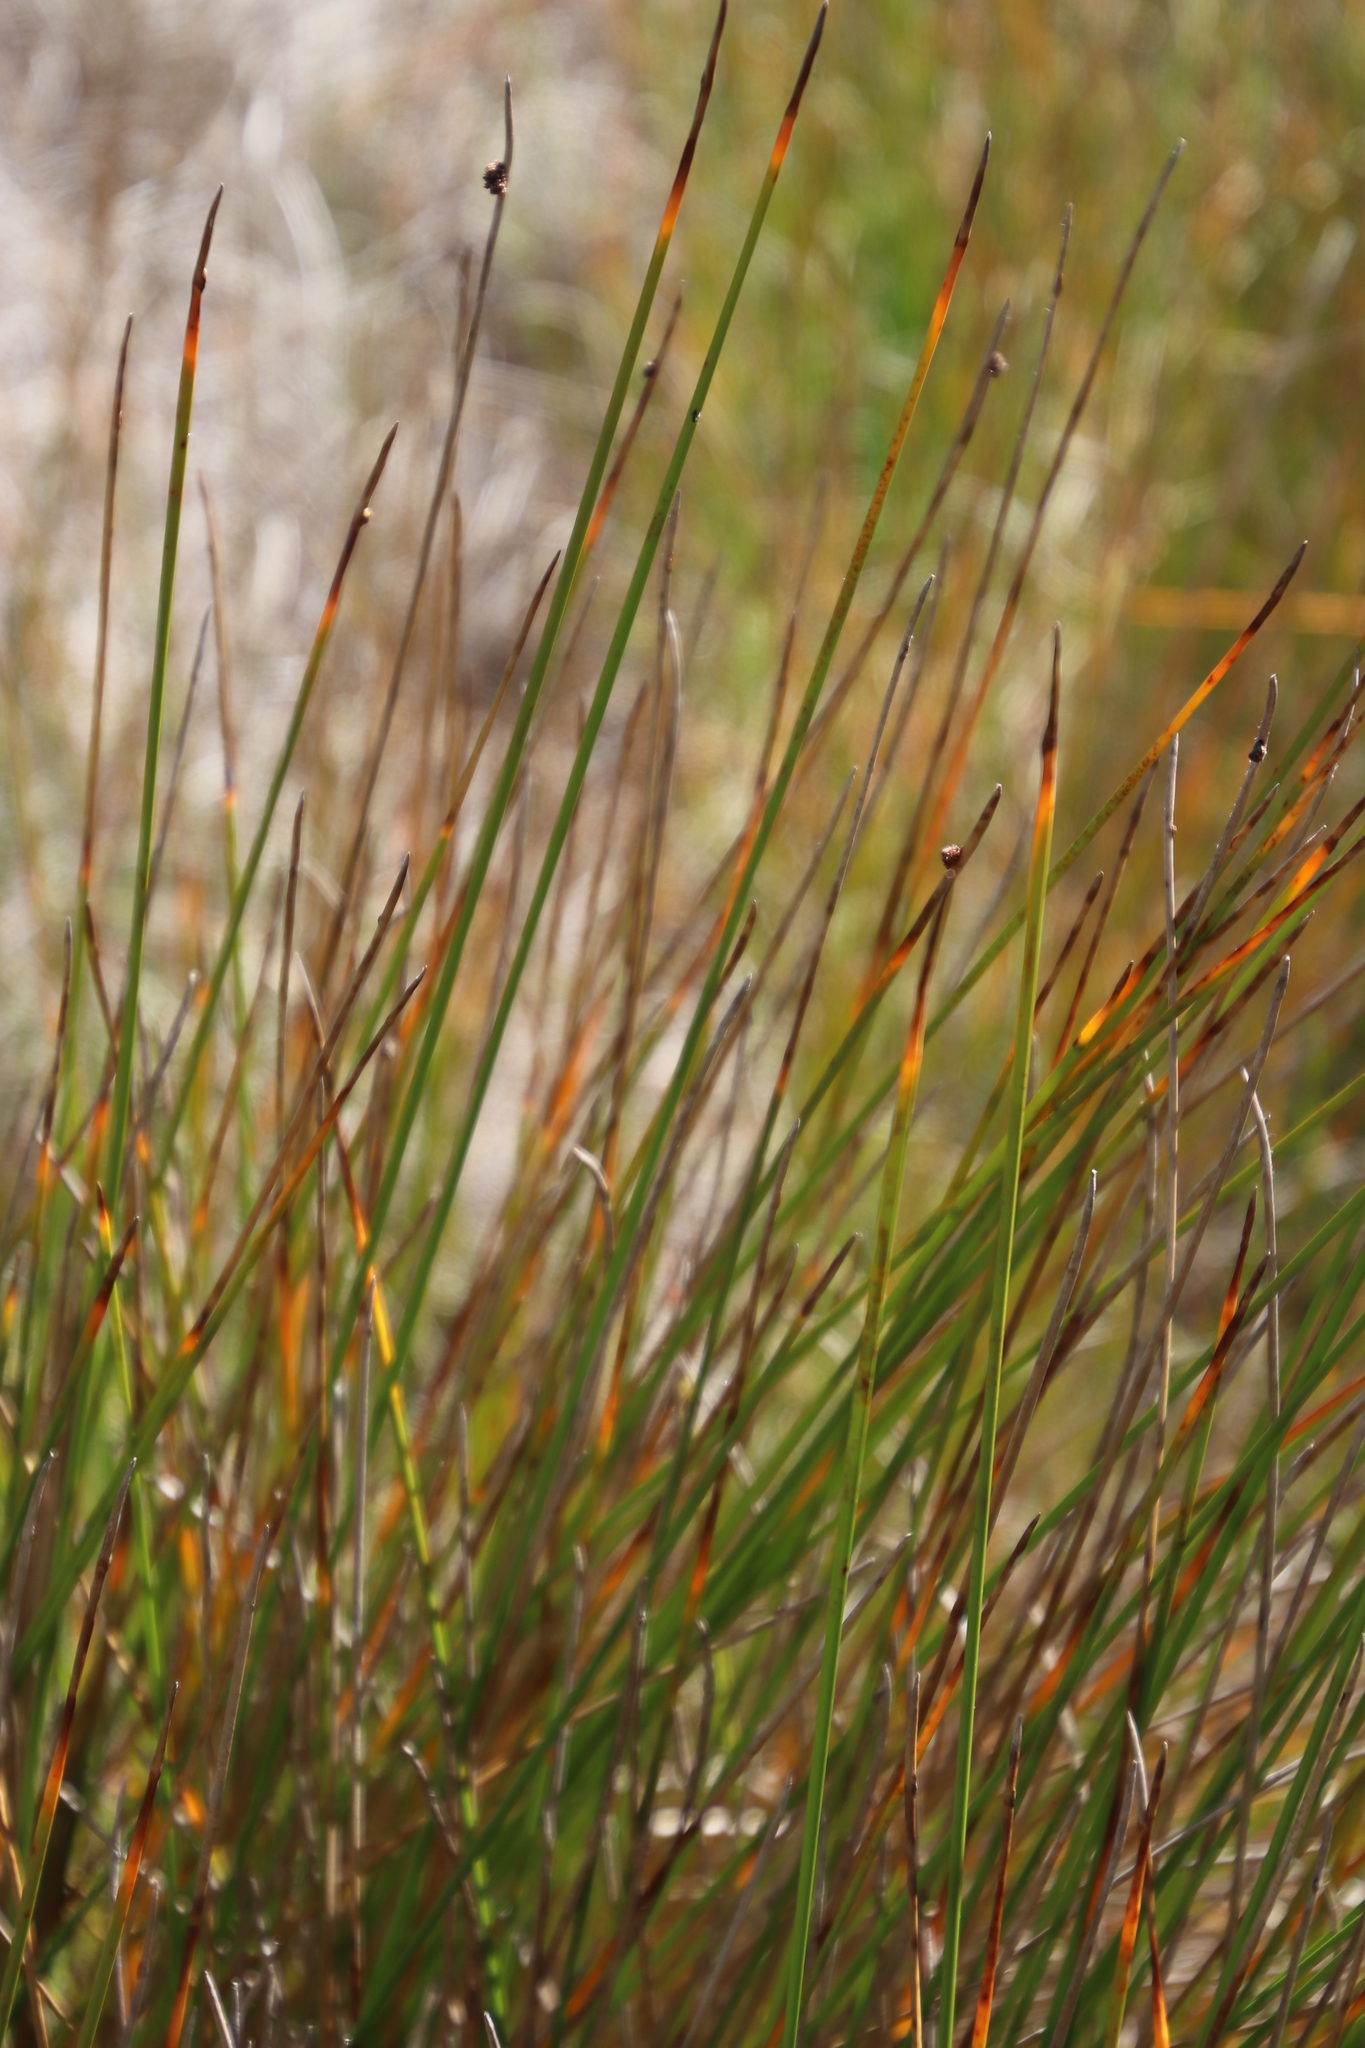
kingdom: Plantae
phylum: Tracheophyta
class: Liliopsida
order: Poales
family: Cyperaceae
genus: Ficinia
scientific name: Ficinia nodosa
